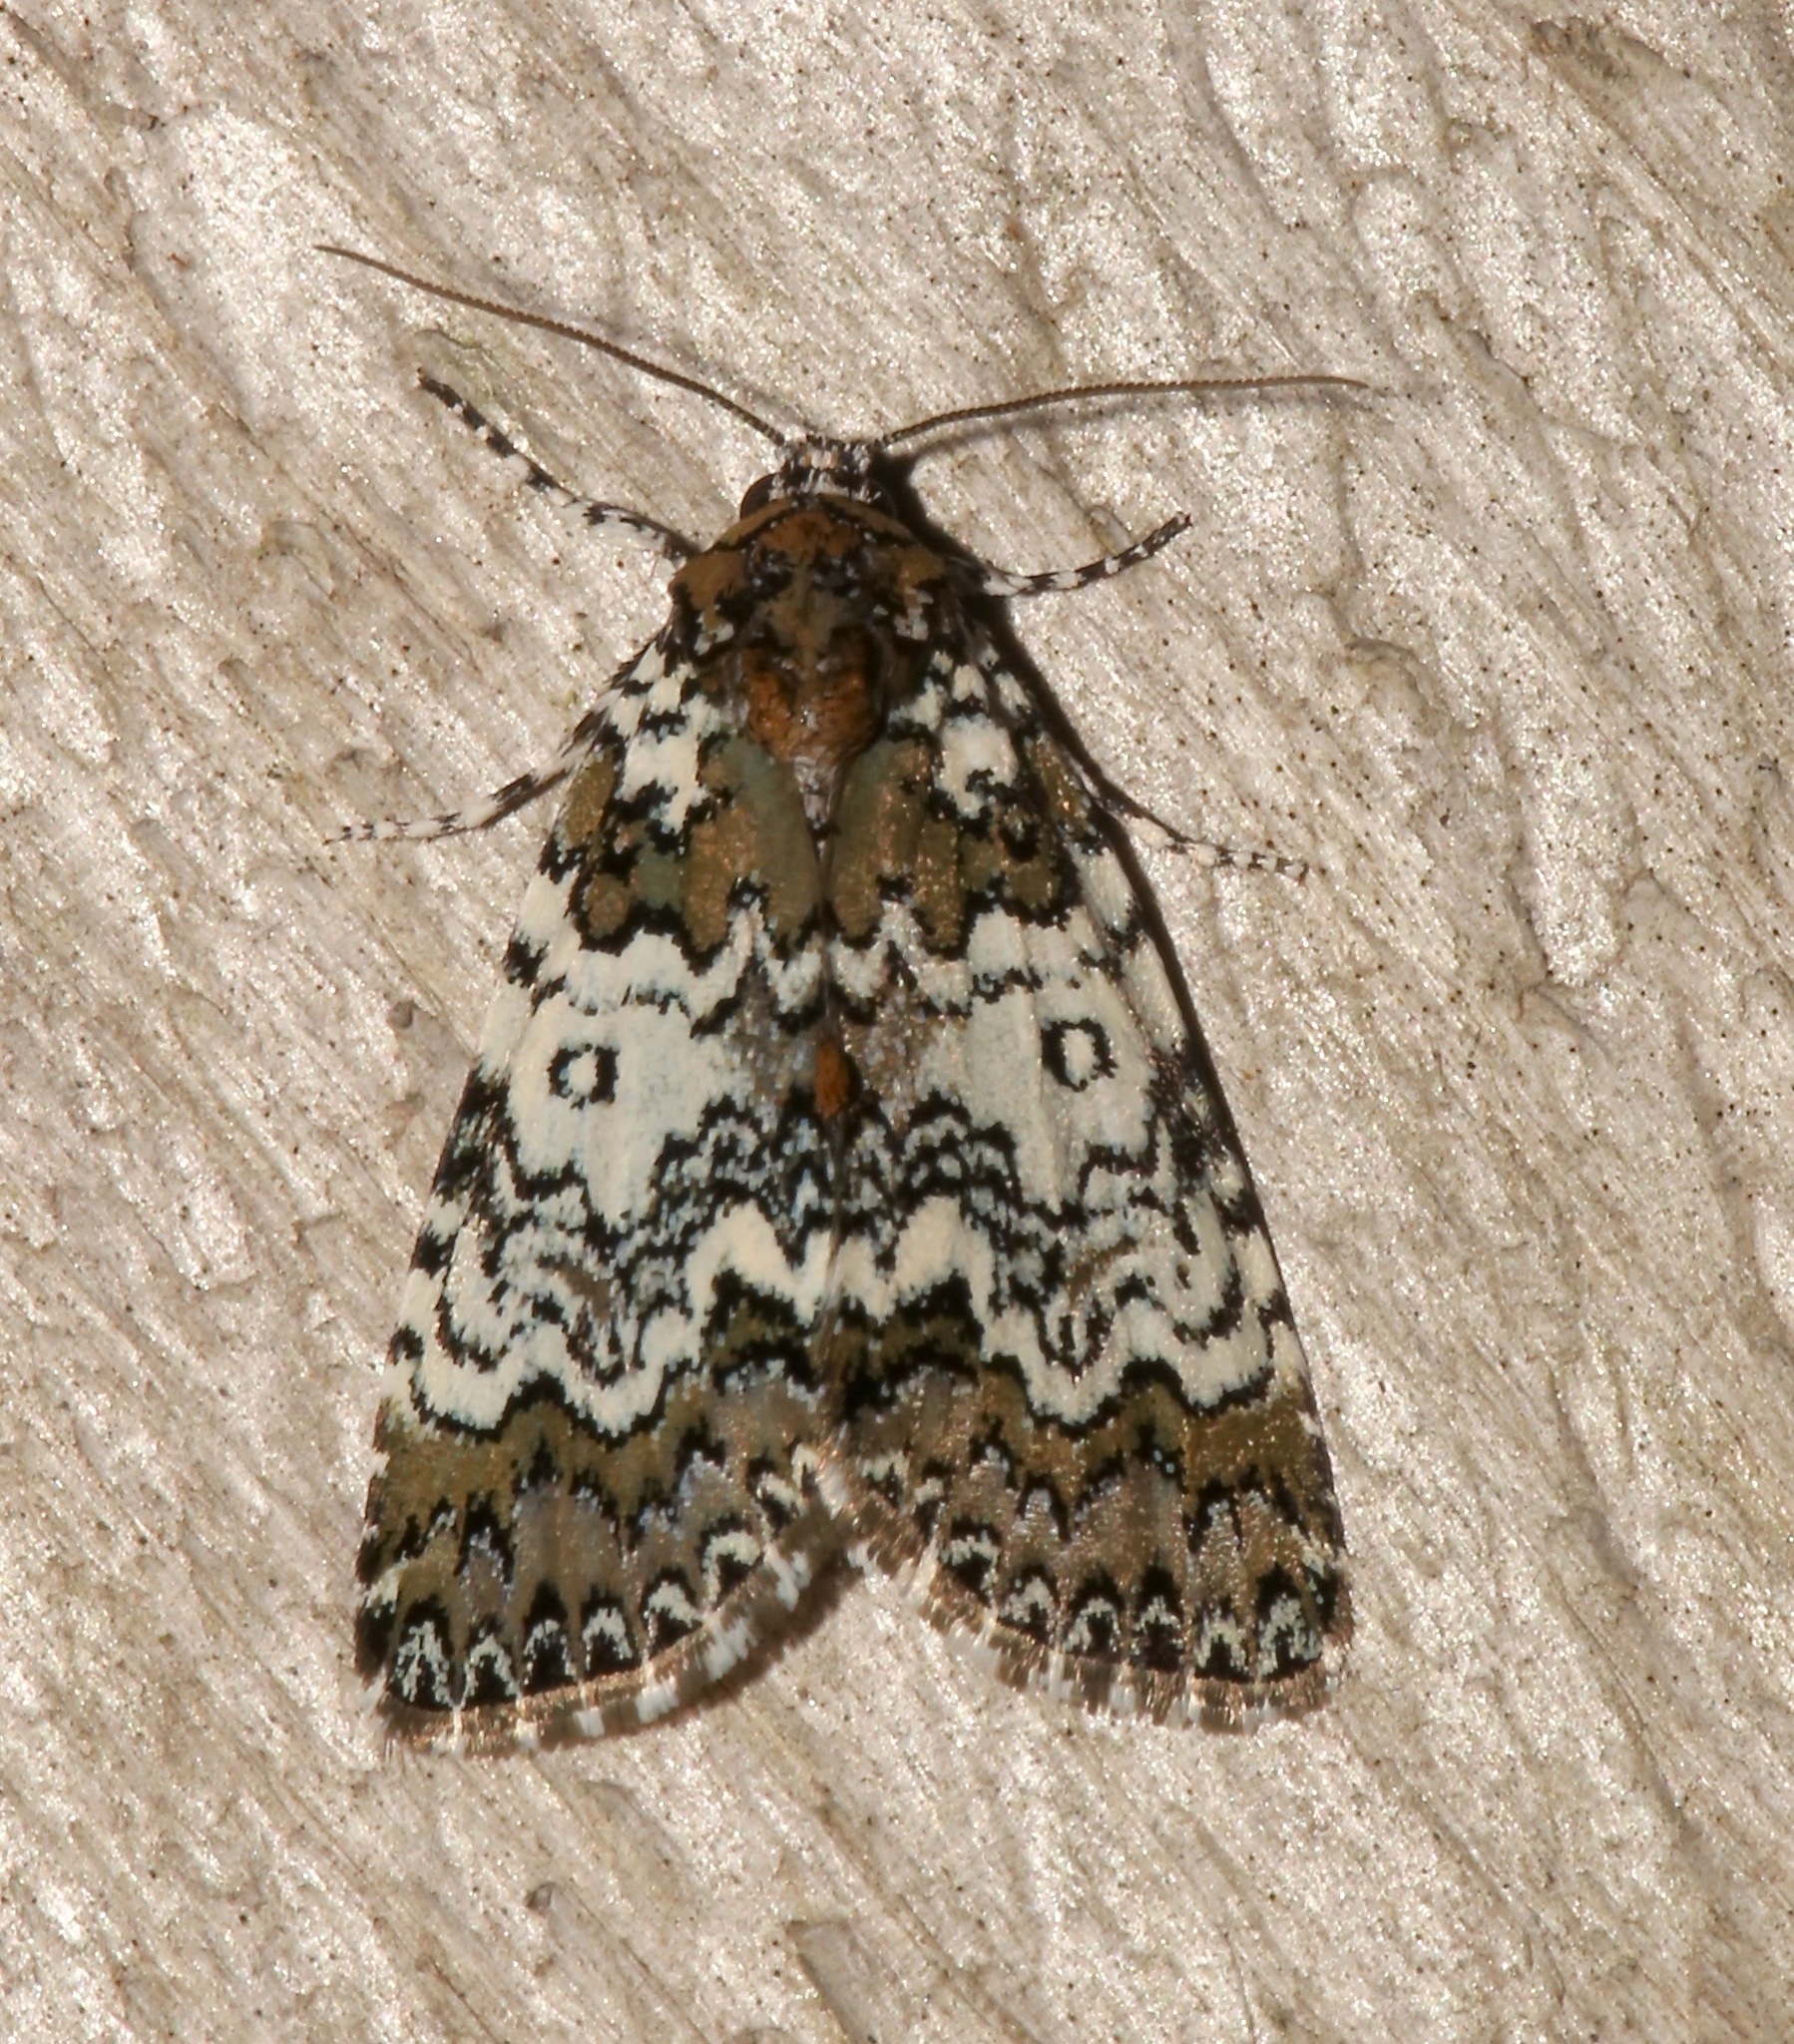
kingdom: Animalia
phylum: Arthropoda
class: Insecta
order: Lepidoptera
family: Noctuidae
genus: Cerma
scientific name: Cerma cora
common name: Bird dropping moth
